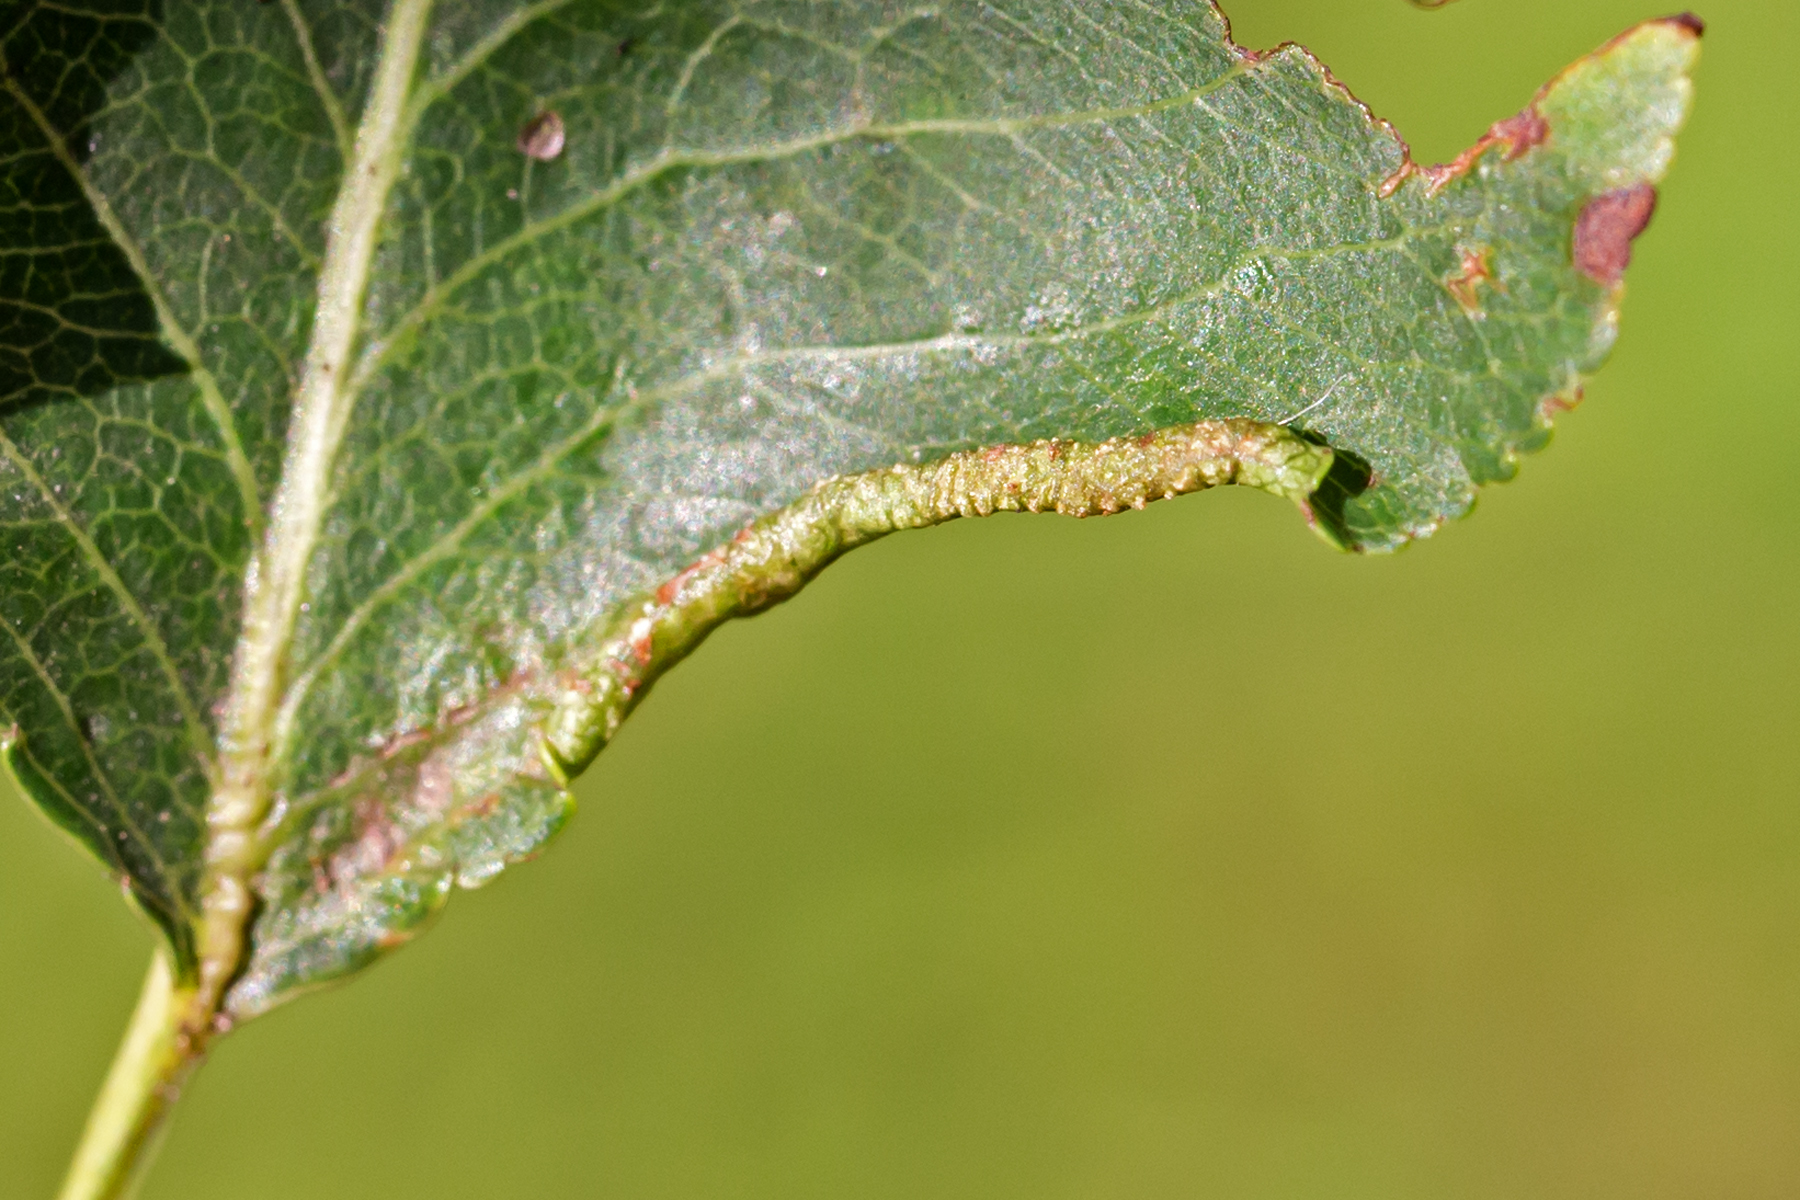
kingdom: Animalia
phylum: Arthropoda
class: Arachnida
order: Trombidiformes
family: Eriophyidae
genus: Eriophyes
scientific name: Eriophyes marginemtorquens
